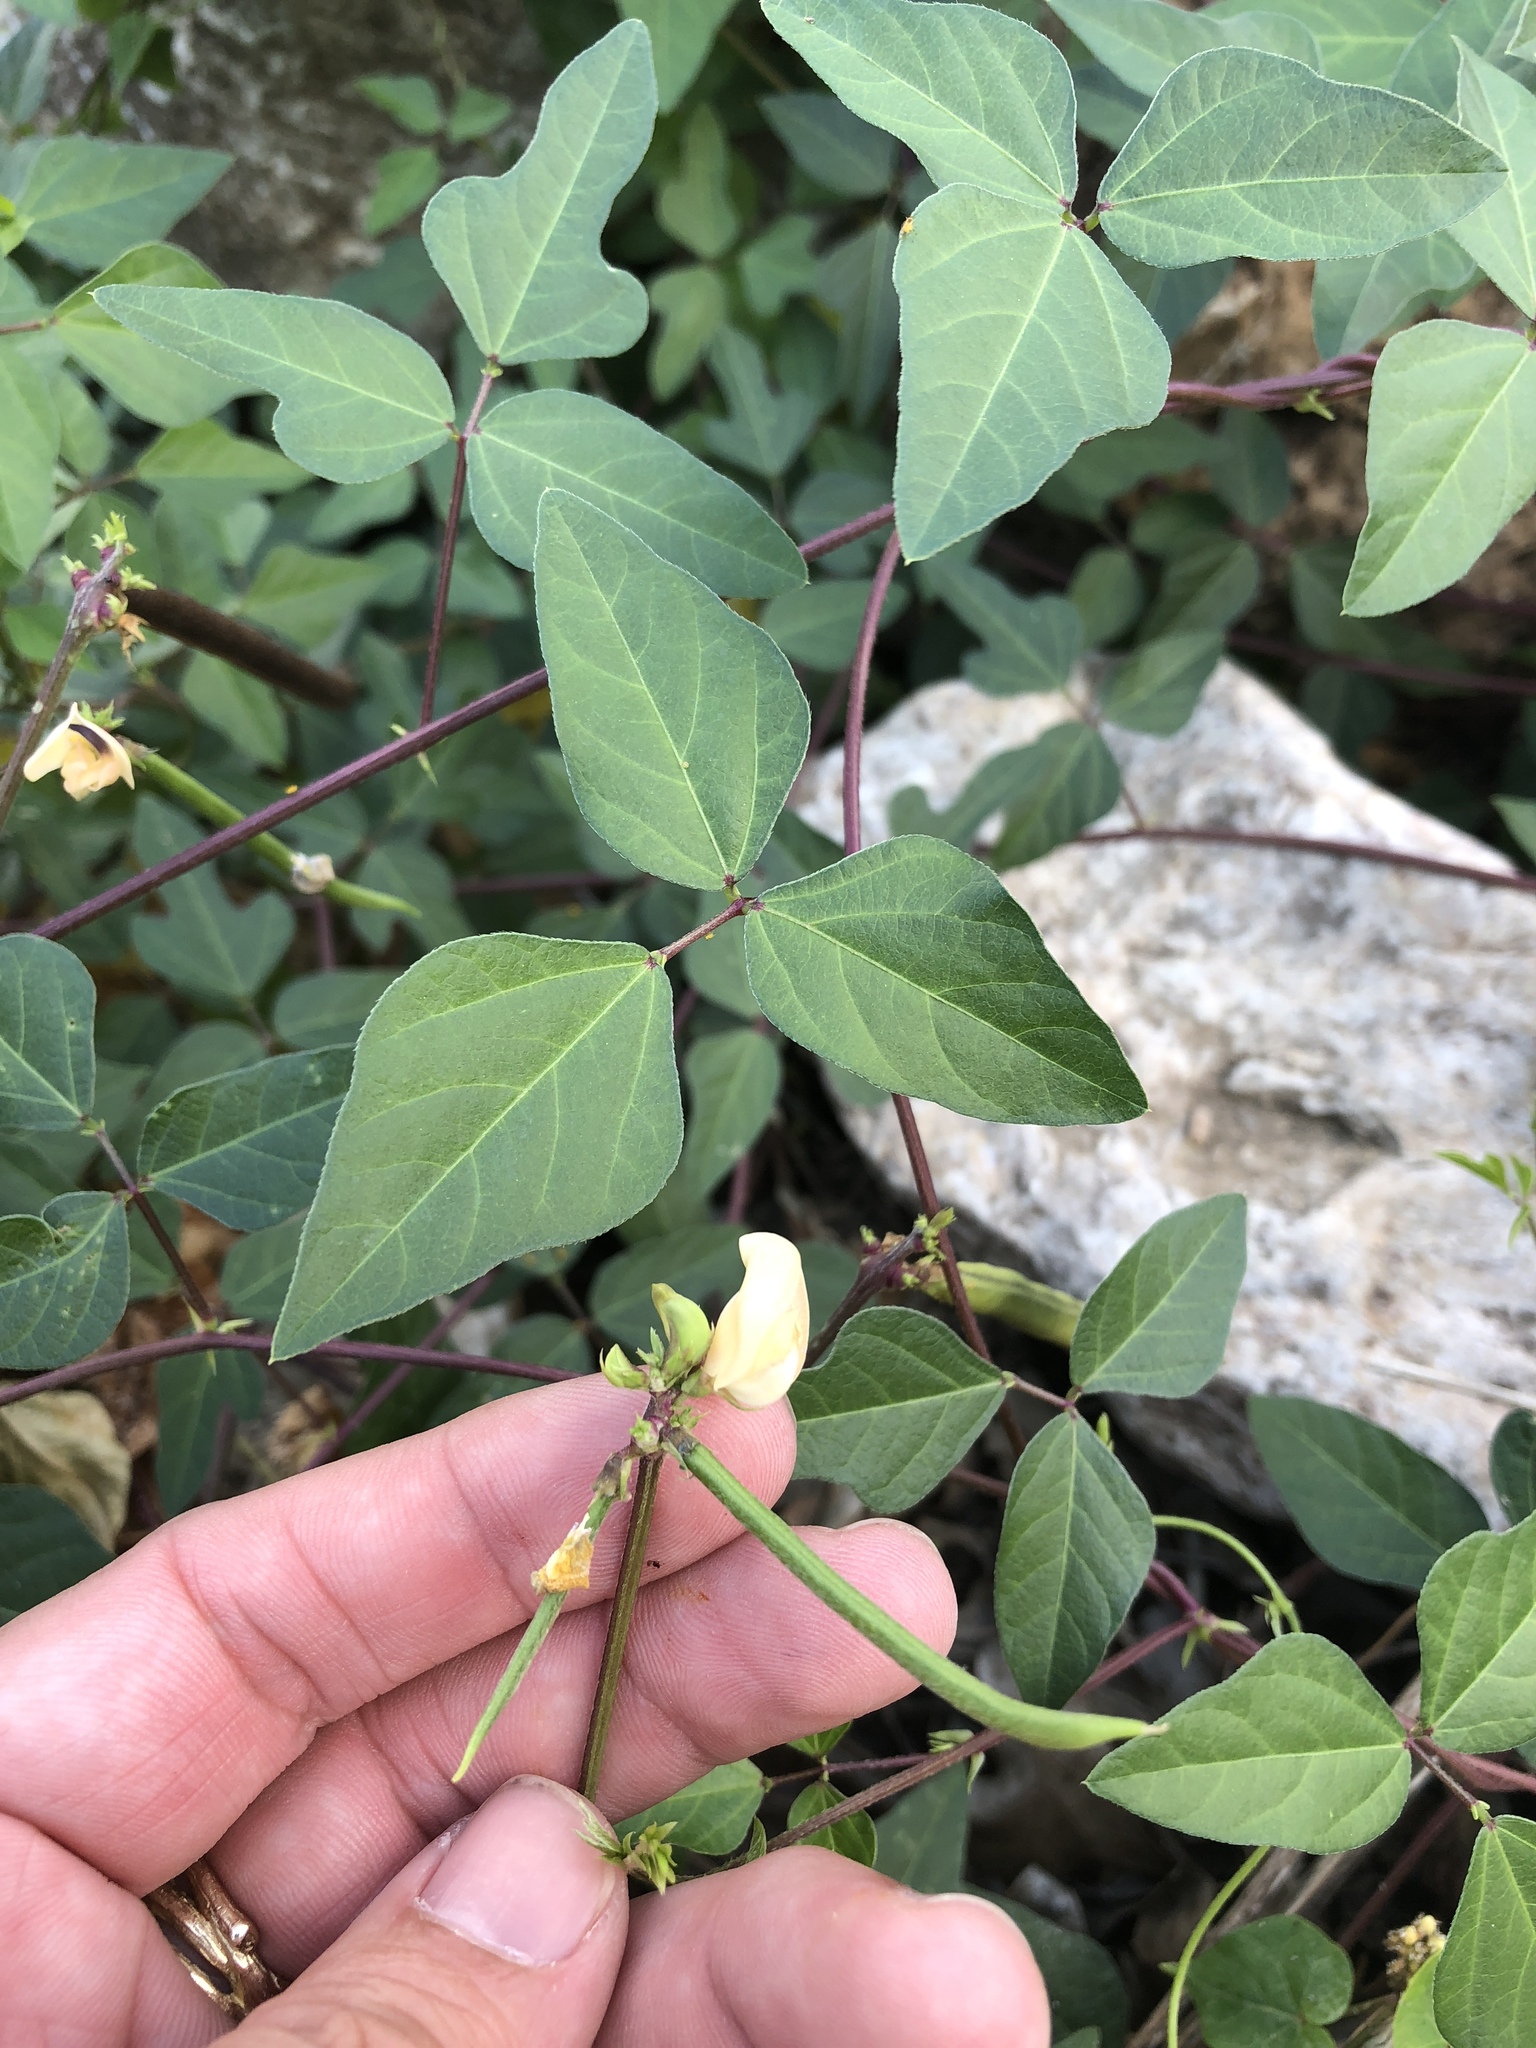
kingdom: Plantae
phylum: Tracheophyta
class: Magnoliopsida
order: Fabales
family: Fabaceae
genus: Strophostyles
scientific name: Strophostyles helvola
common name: Trailing wild bean
